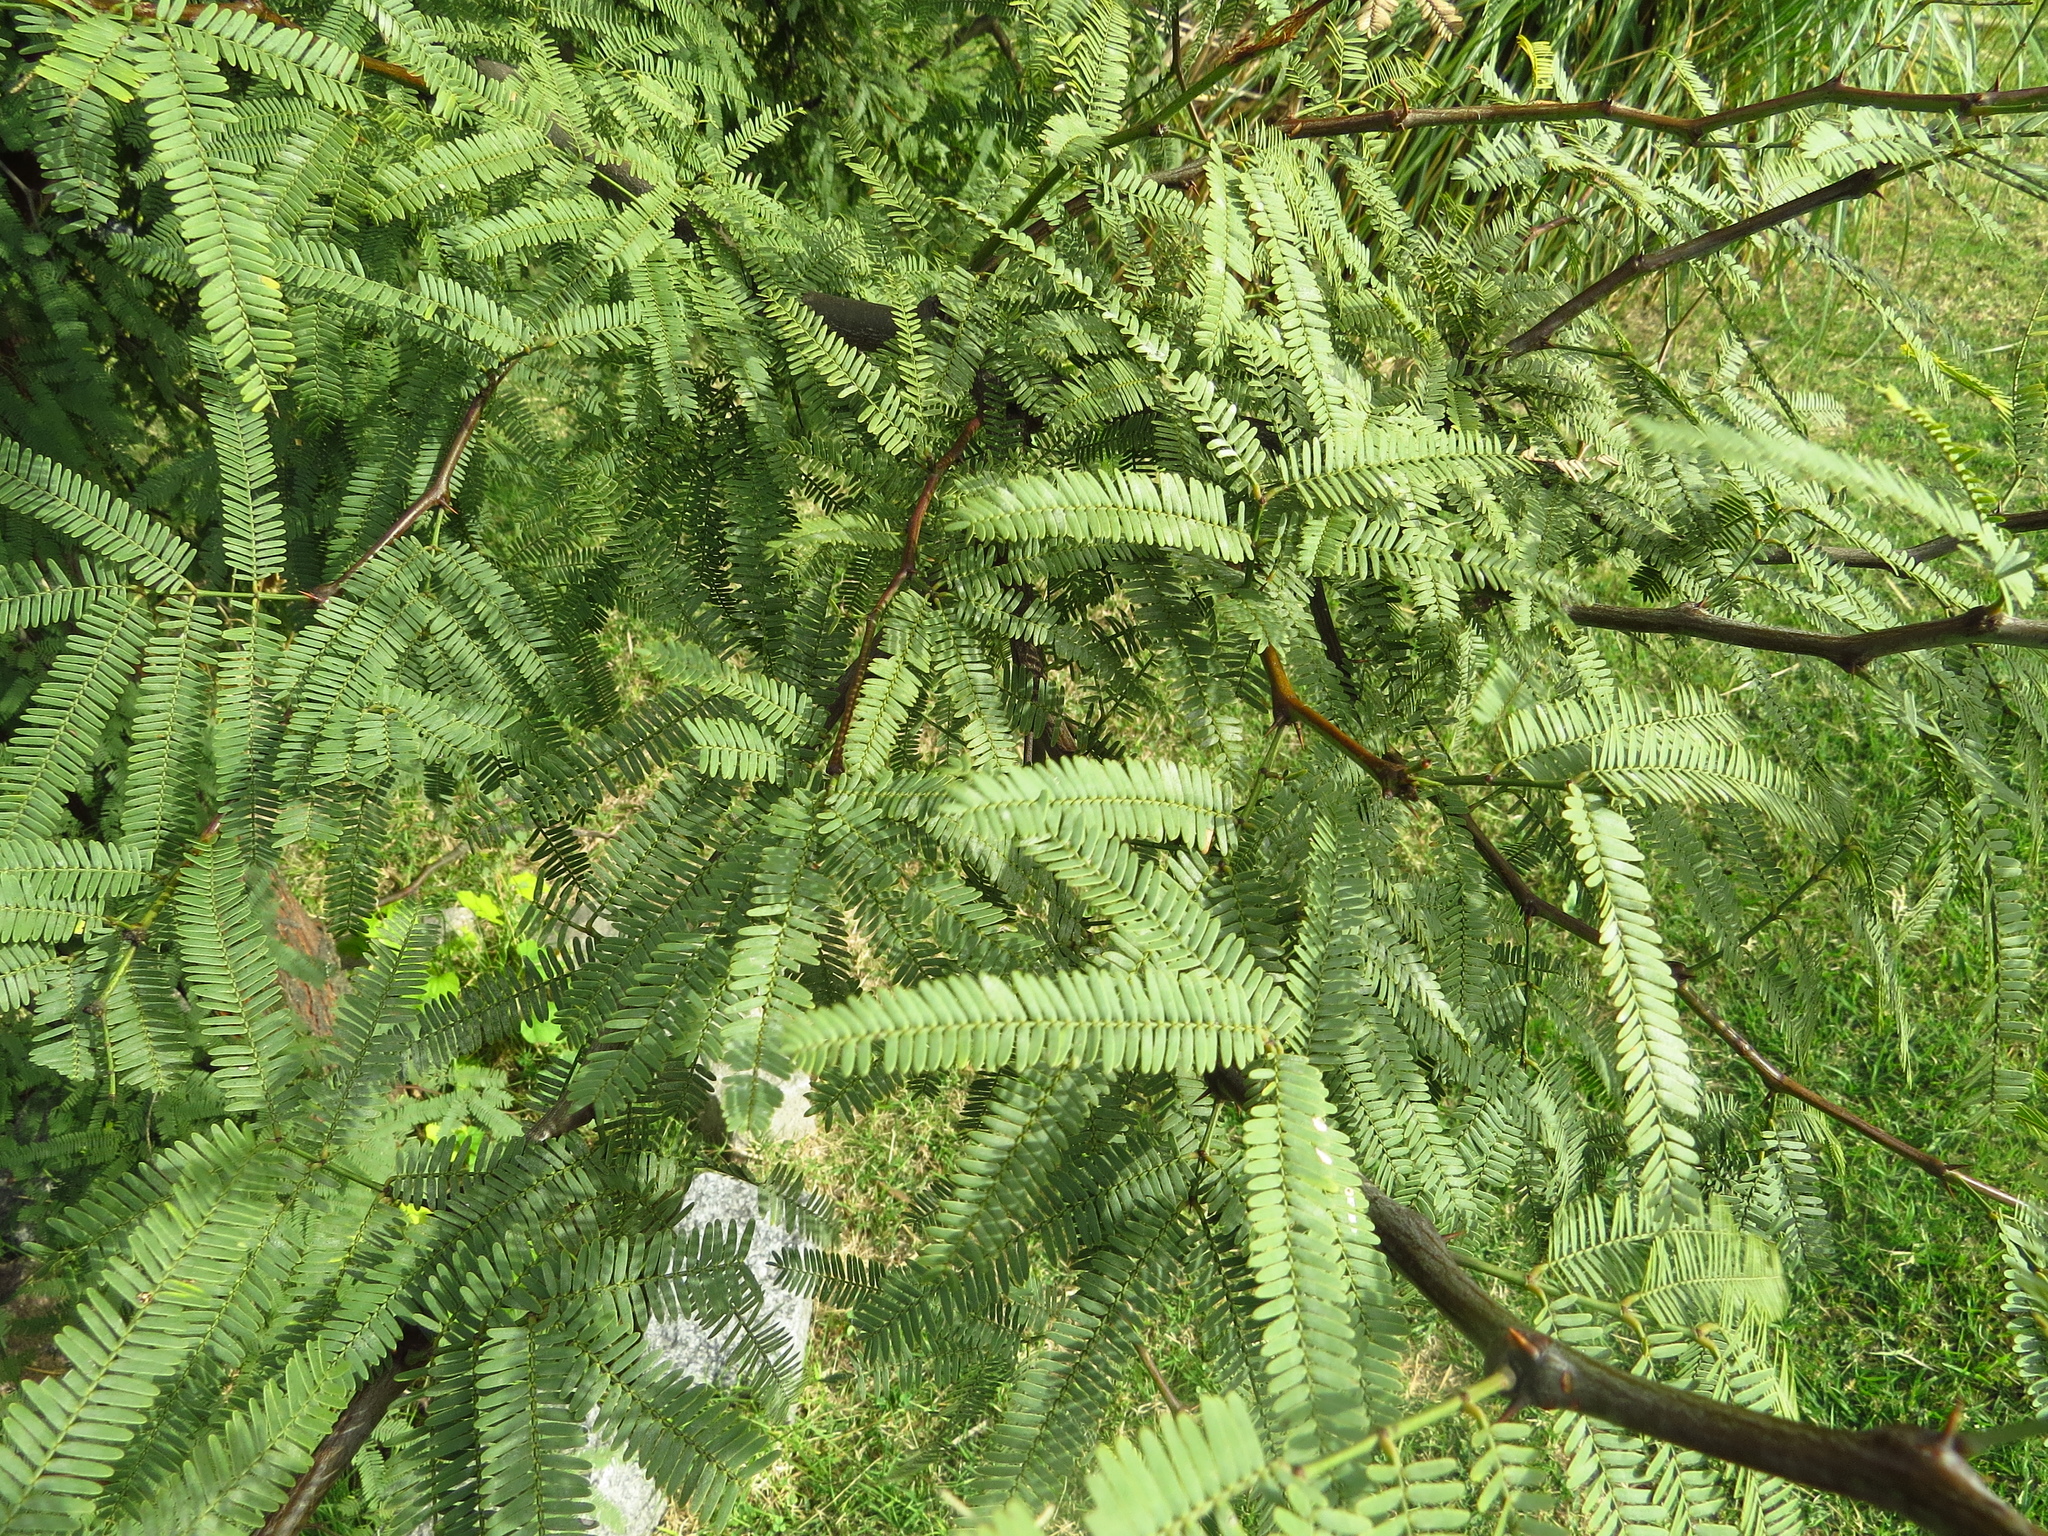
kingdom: Plantae
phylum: Tracheophyta
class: Magnoliopsida
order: Fabales
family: Fabaceae
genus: Prosopis
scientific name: Prosopis alba
